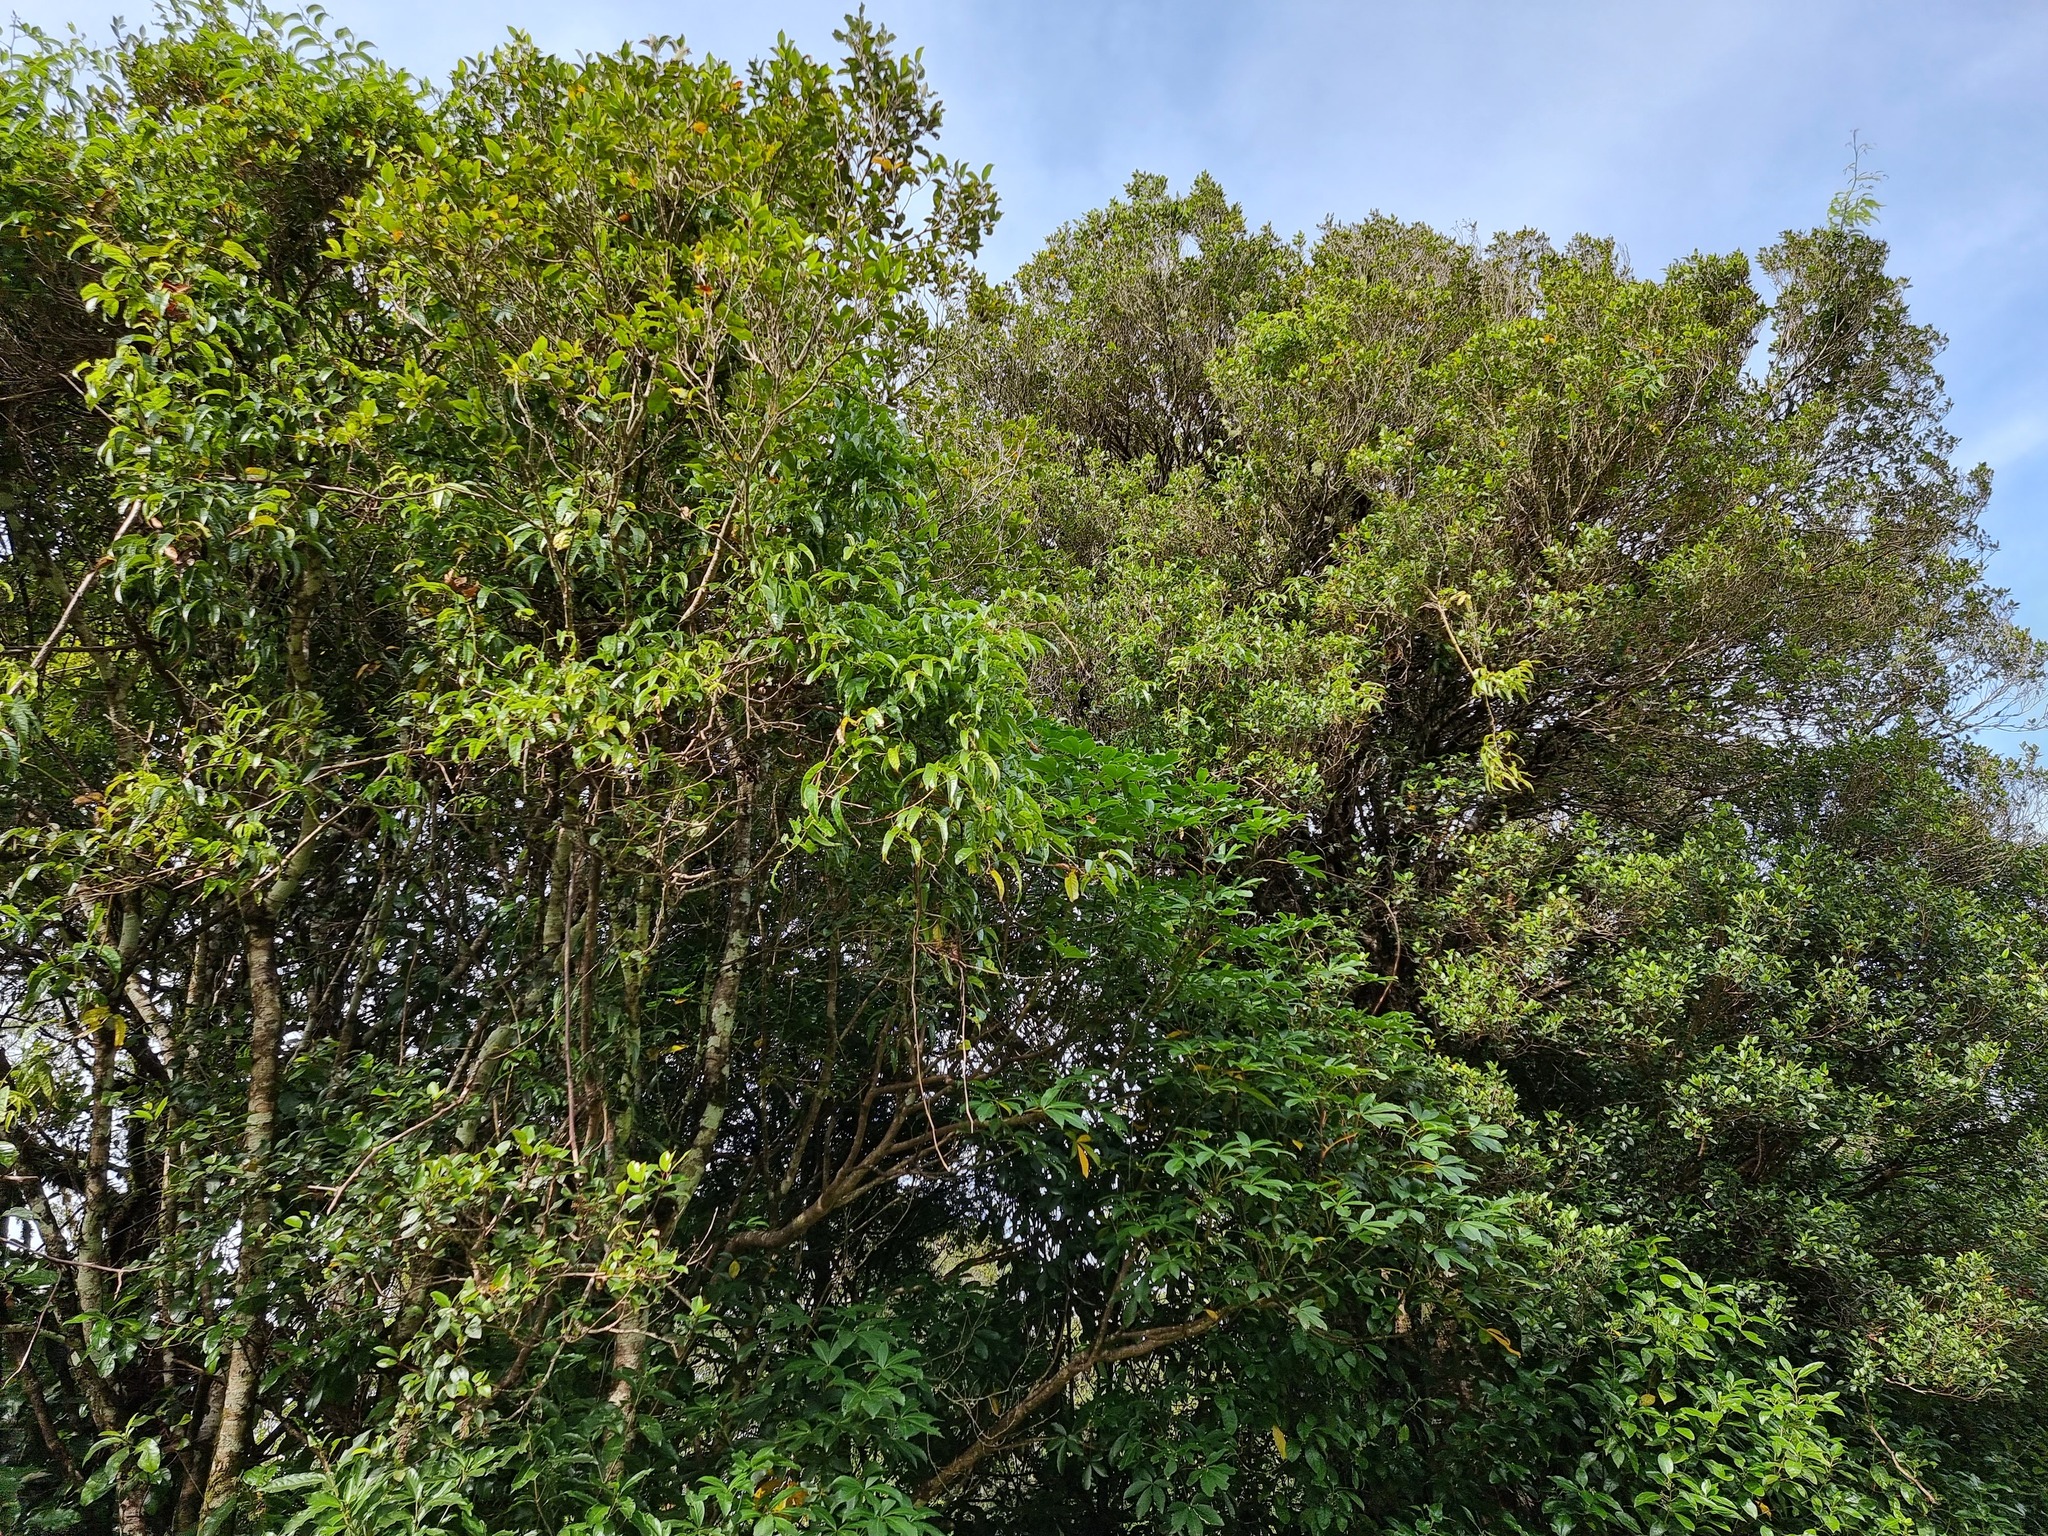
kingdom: Plantae
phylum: Tracheophyta
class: Magnoliopsida
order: Rosales
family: Rosaceae
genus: Rubus
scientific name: Rubus cissoides
